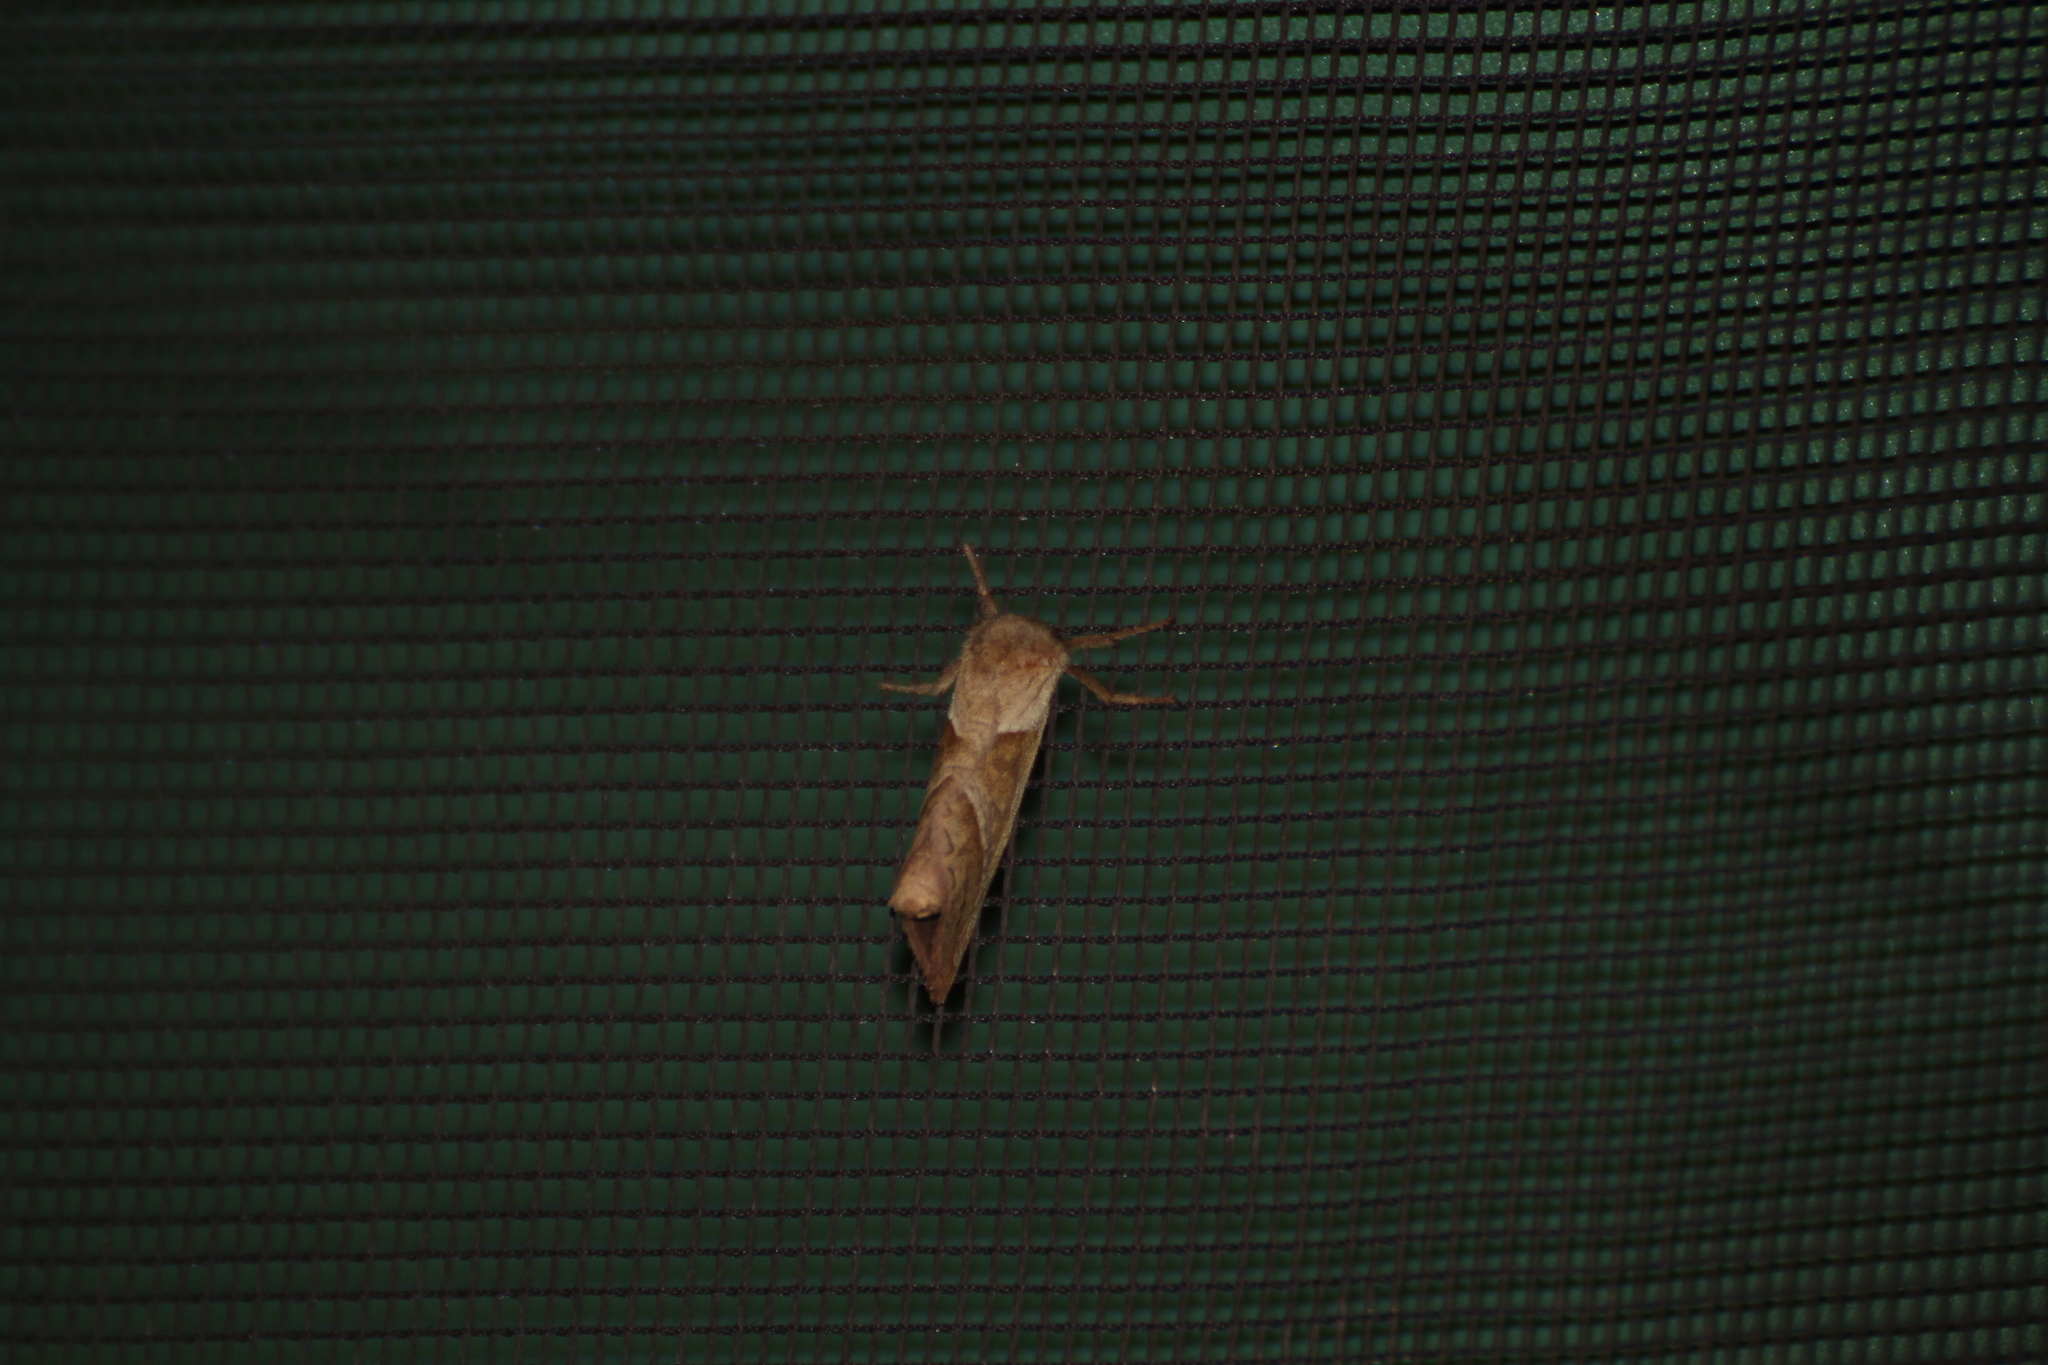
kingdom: Animalia
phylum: Arthropoda
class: Insecta
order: Lepidoptera
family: Hepialidae
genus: Triodia
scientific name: Triodia sylvina
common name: Orange swift
